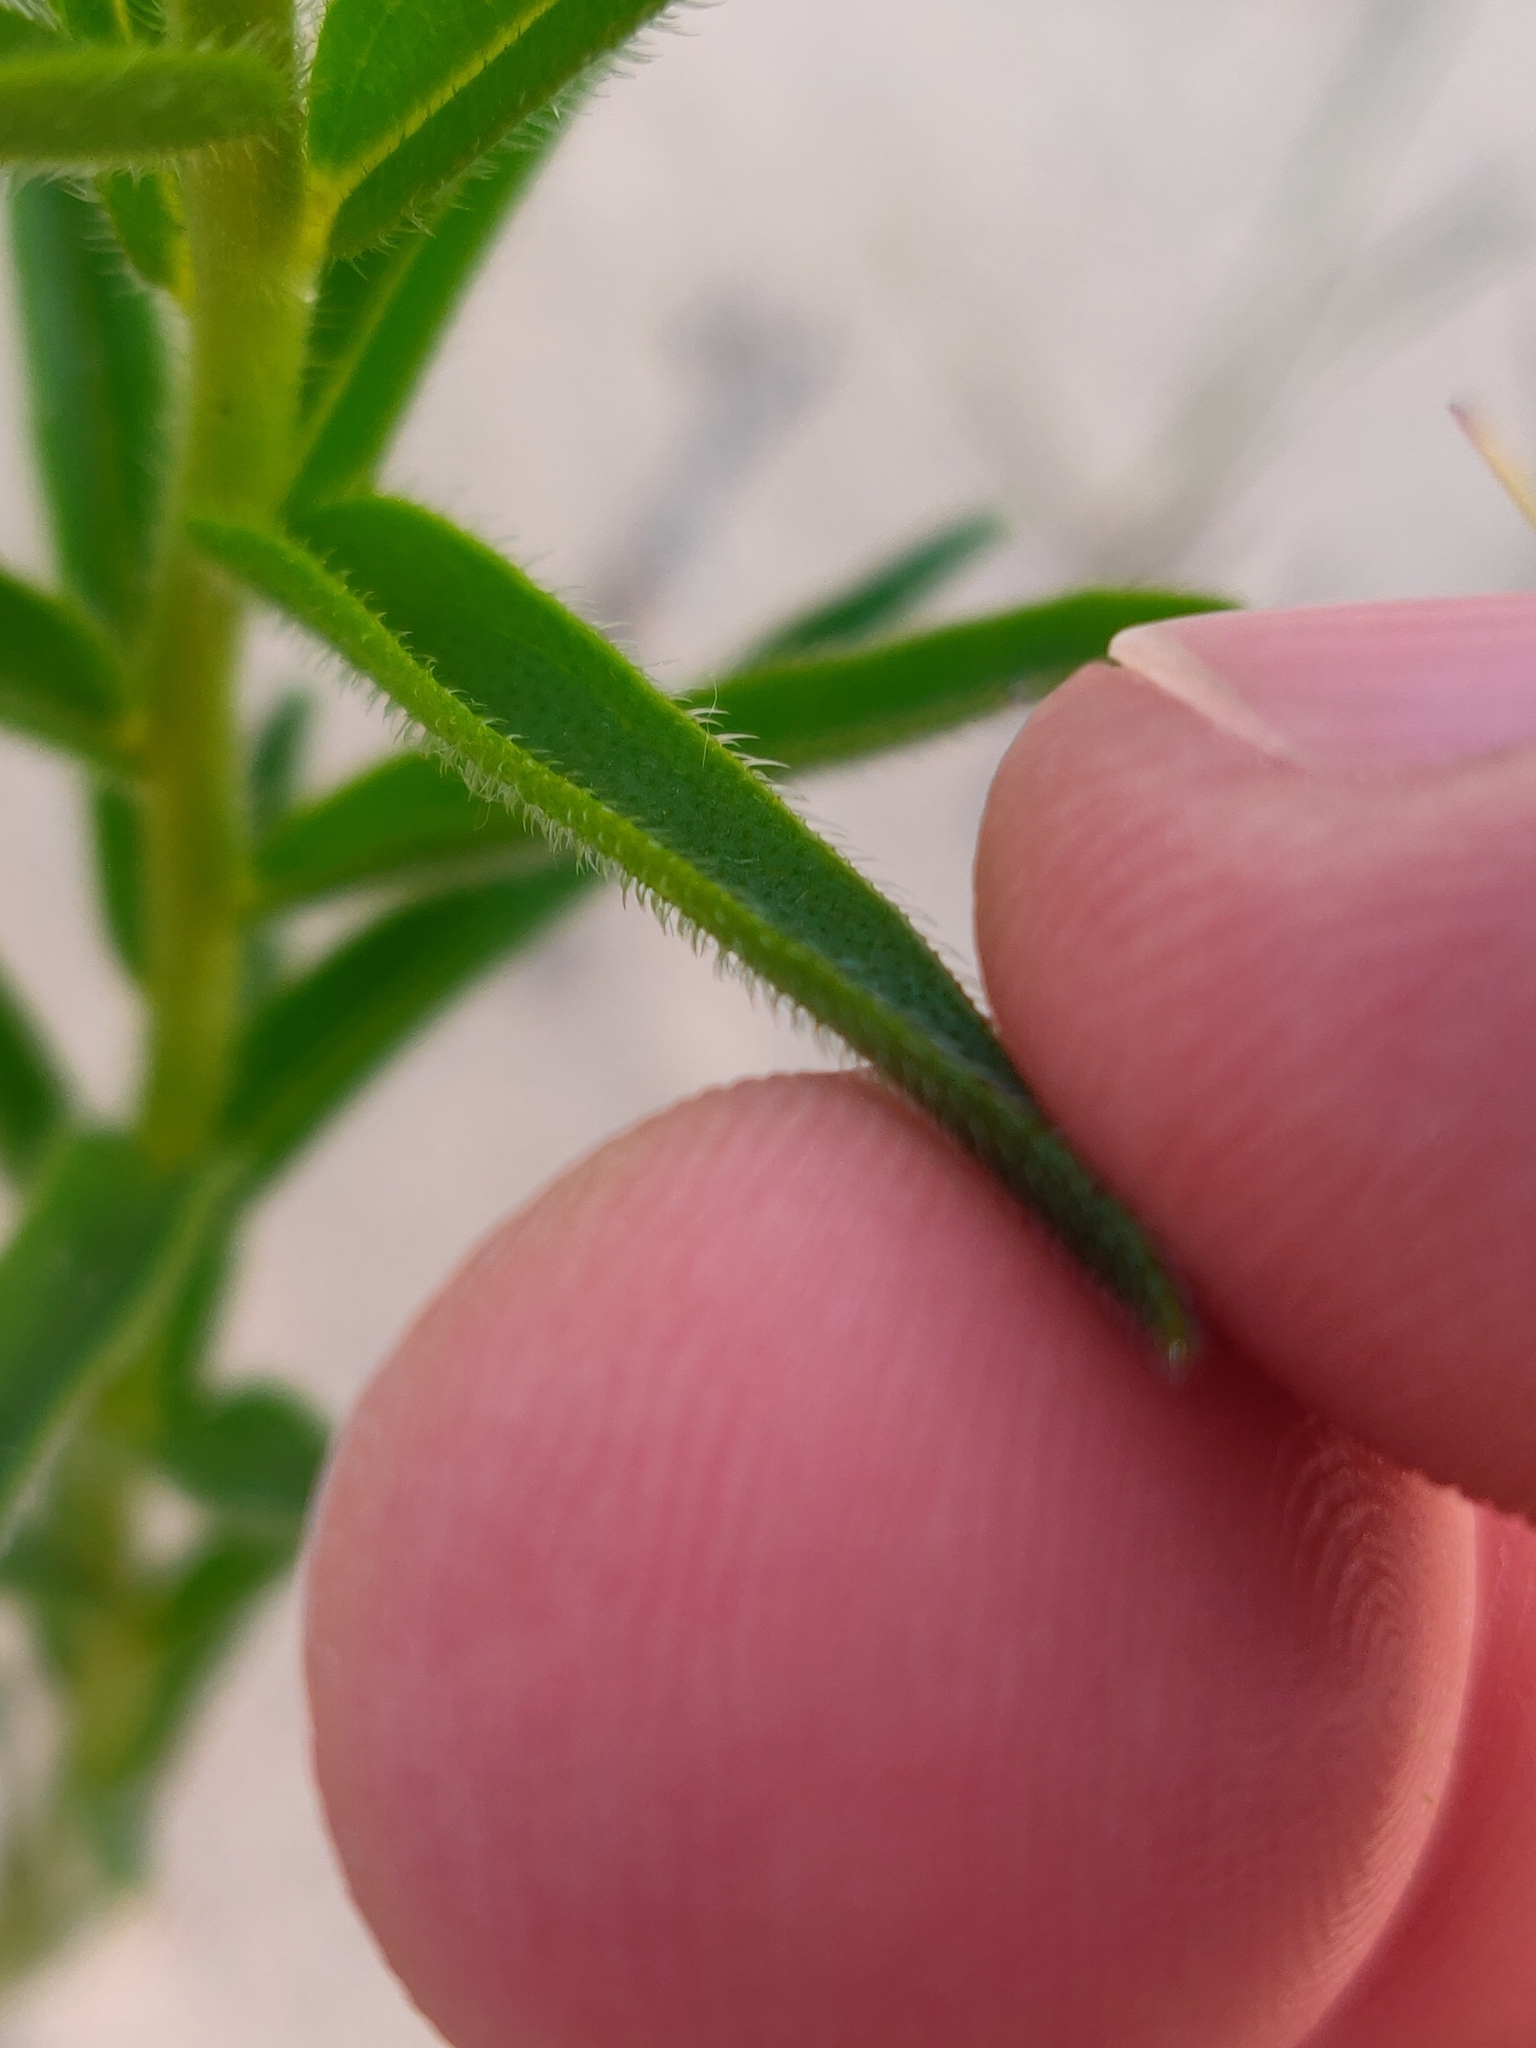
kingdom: Plantae
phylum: Tracheophyta
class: Magnoliopsida
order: Boraginales
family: Boraginaceae
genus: Lithospermum
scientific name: Lithospermum caroliniense
